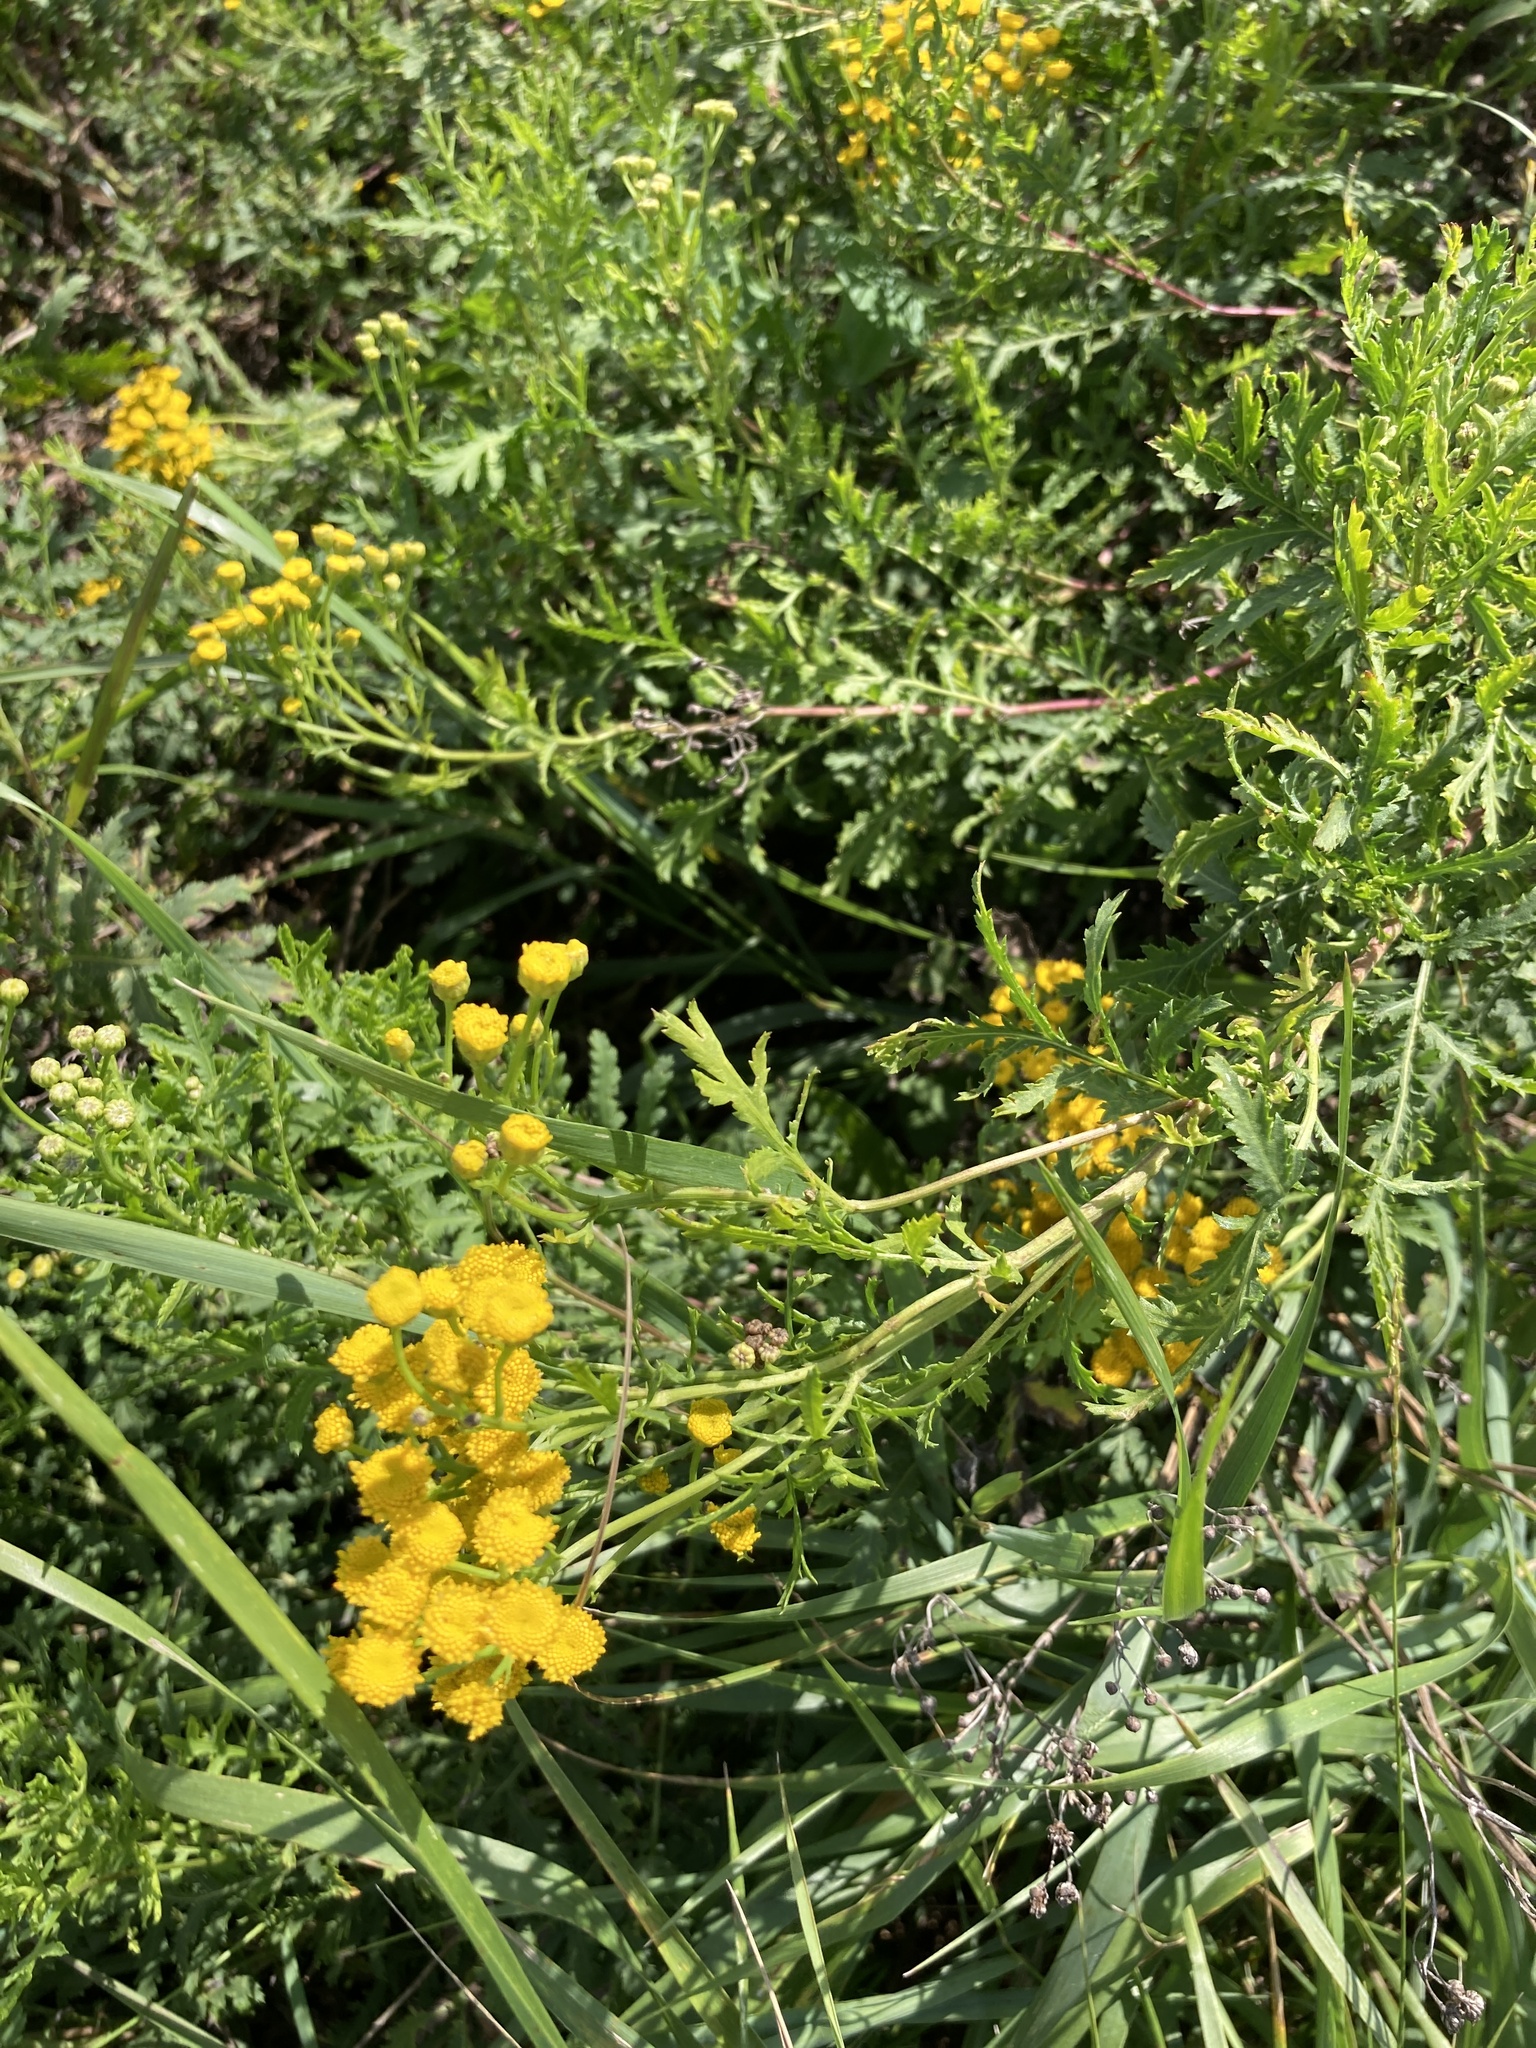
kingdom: Plantae
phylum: Tracheophyta
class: Magnoliopsida
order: Asterales
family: Asteraceae
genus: Tanacetum
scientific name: Tanacetum vulgare
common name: Common tansy
